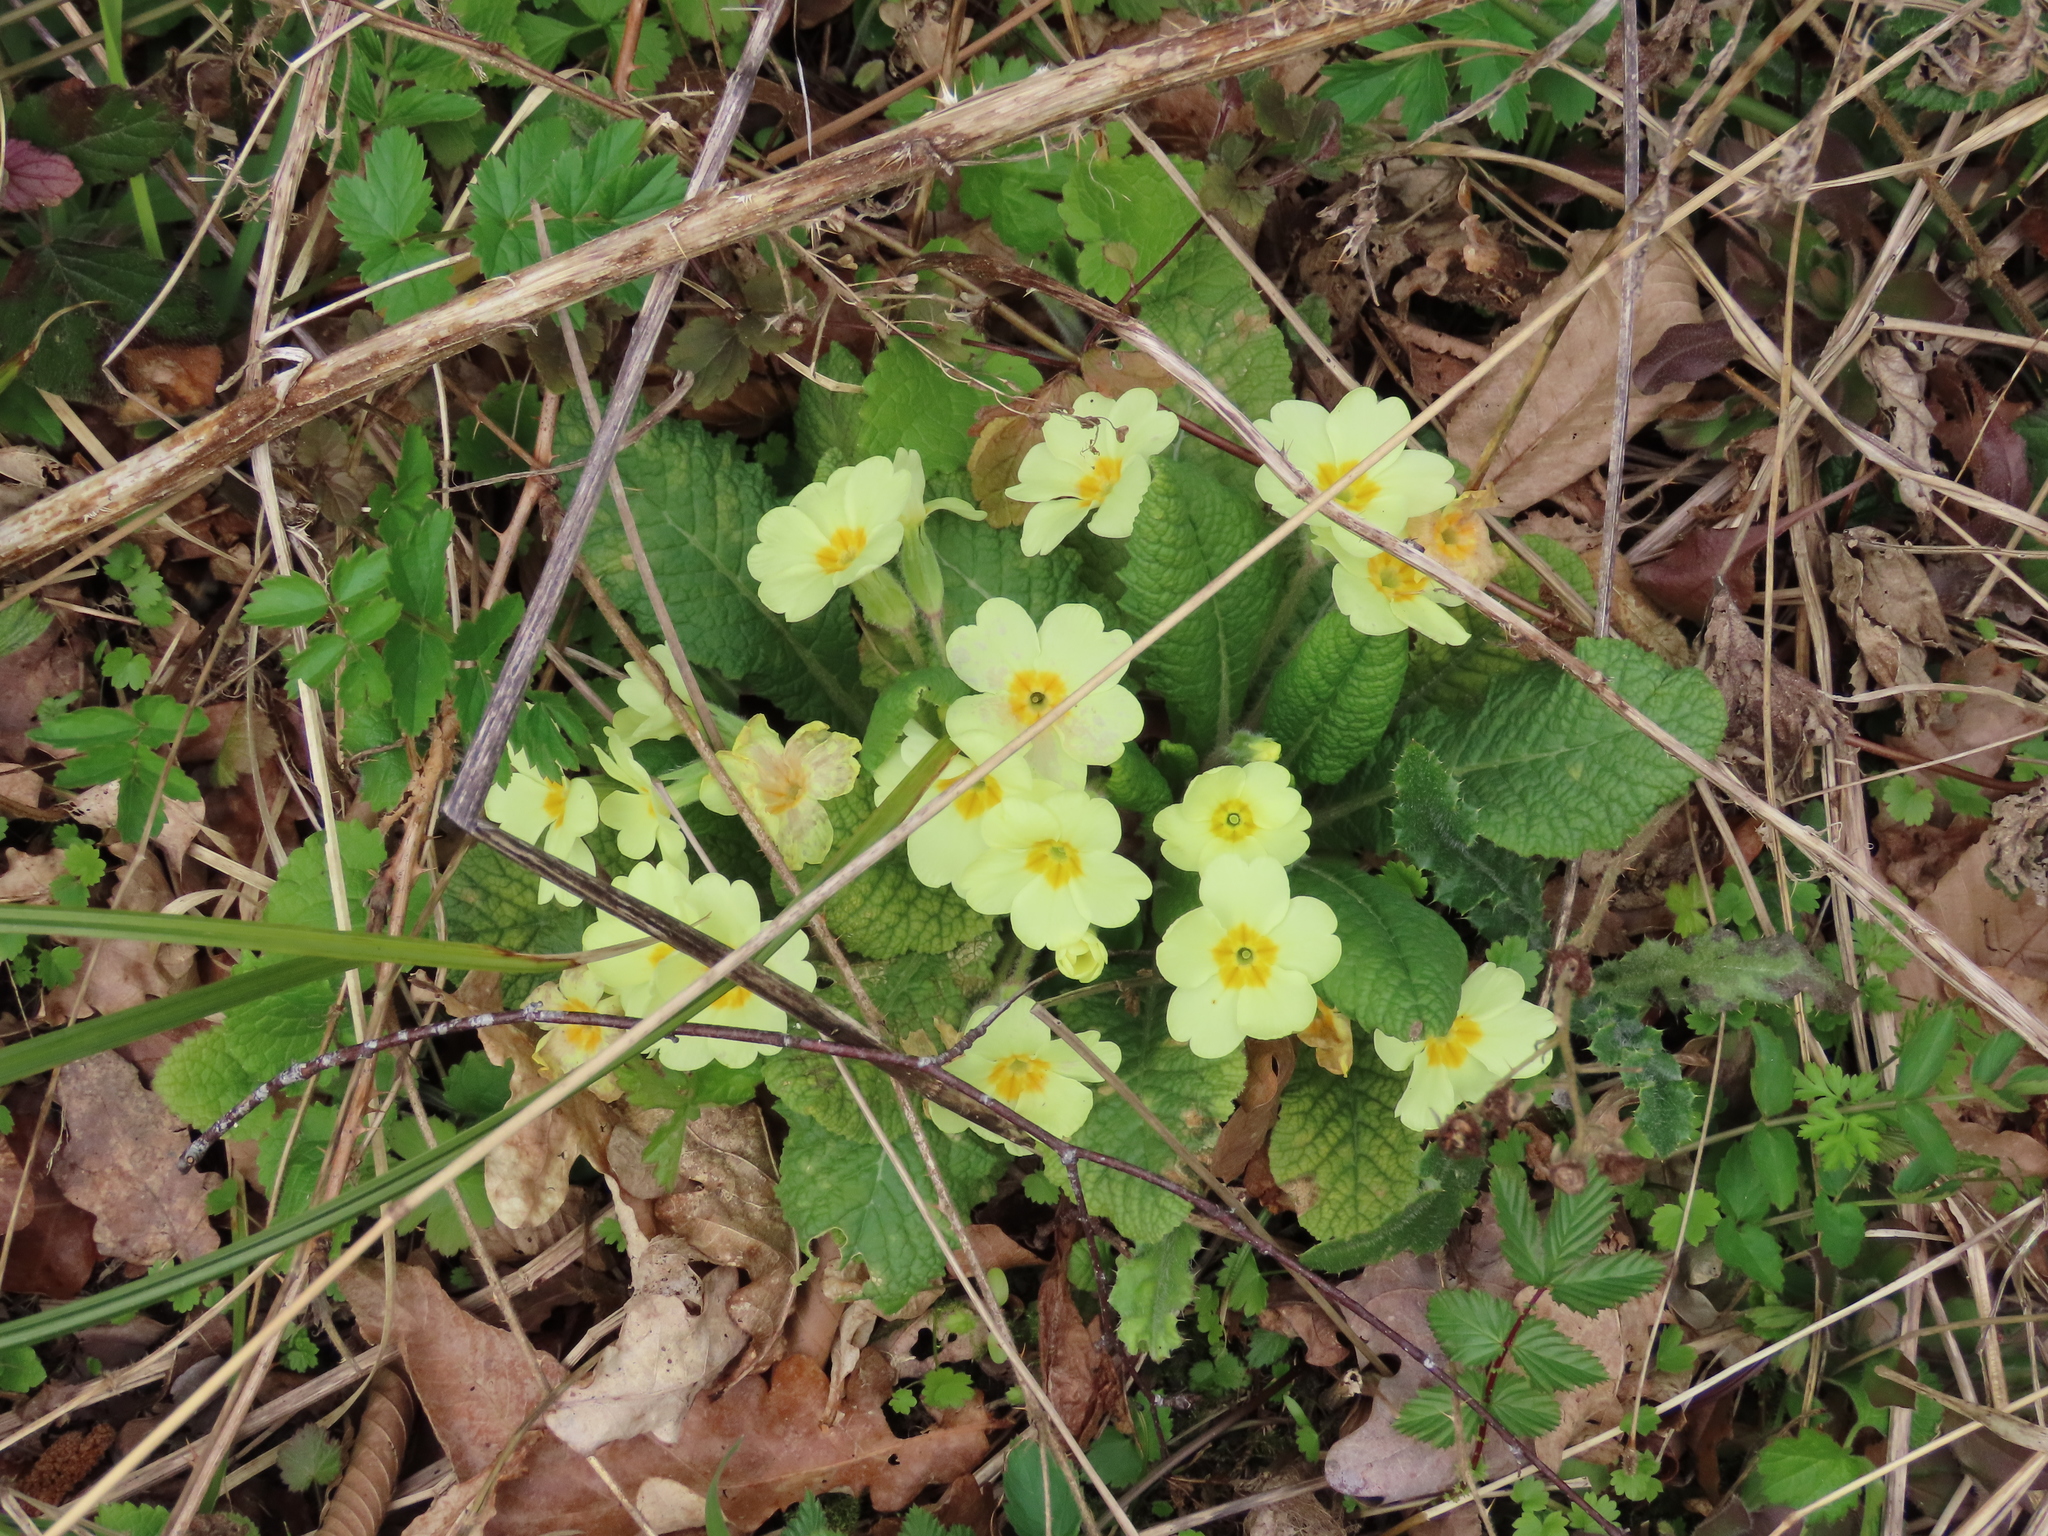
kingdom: Plantae
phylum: Tracheophyta
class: Magnoliopsida
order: Ericales
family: Primulaceae
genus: Primula
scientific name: Primula vulgaris
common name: Primrose
